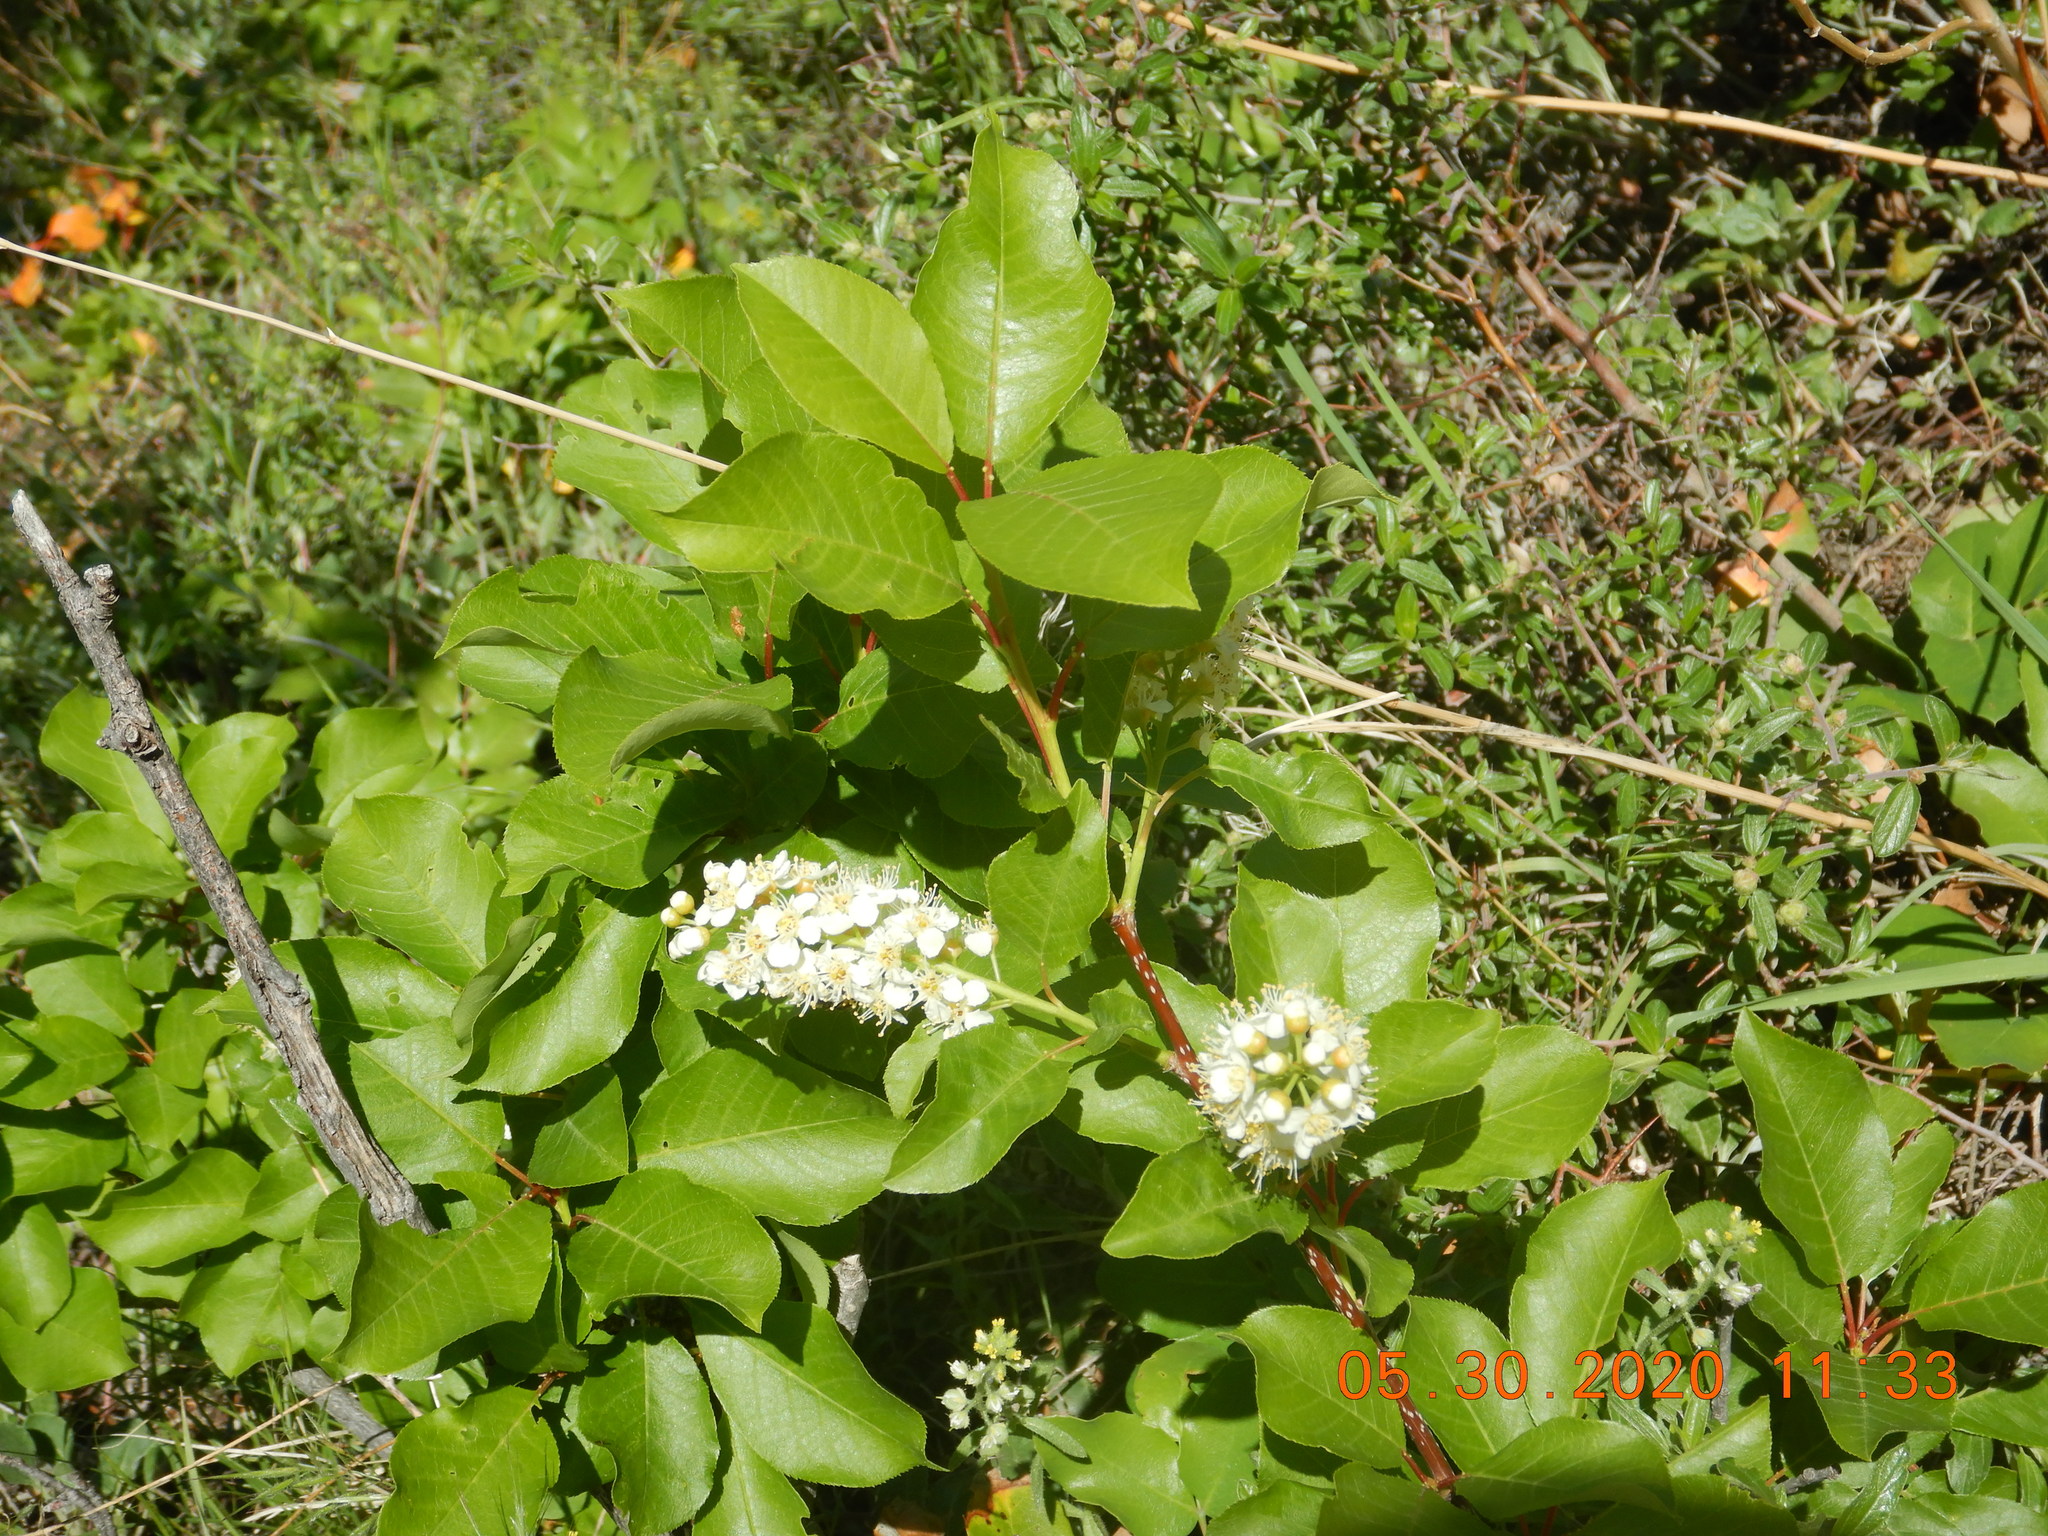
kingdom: Plantae
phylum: Tracheophyta
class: Magnoliopsida
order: Rosales
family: Rosaceae
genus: Prunus
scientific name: Prunus virginiana
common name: Chokecherry
